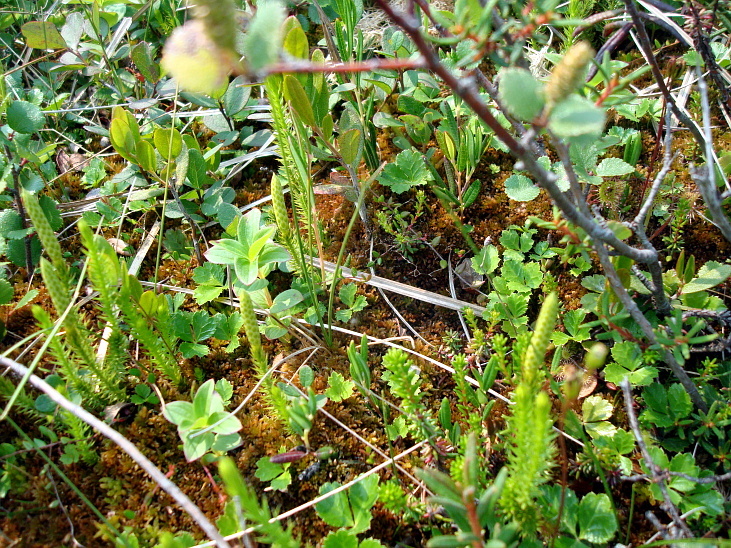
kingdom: Plantae
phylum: Tracheophyta
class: Lycopodiopsida
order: Lycopodiales
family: Lycopodiaceae
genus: Spinulum
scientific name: Spinulum annotinum
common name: Interrupted club-moss
